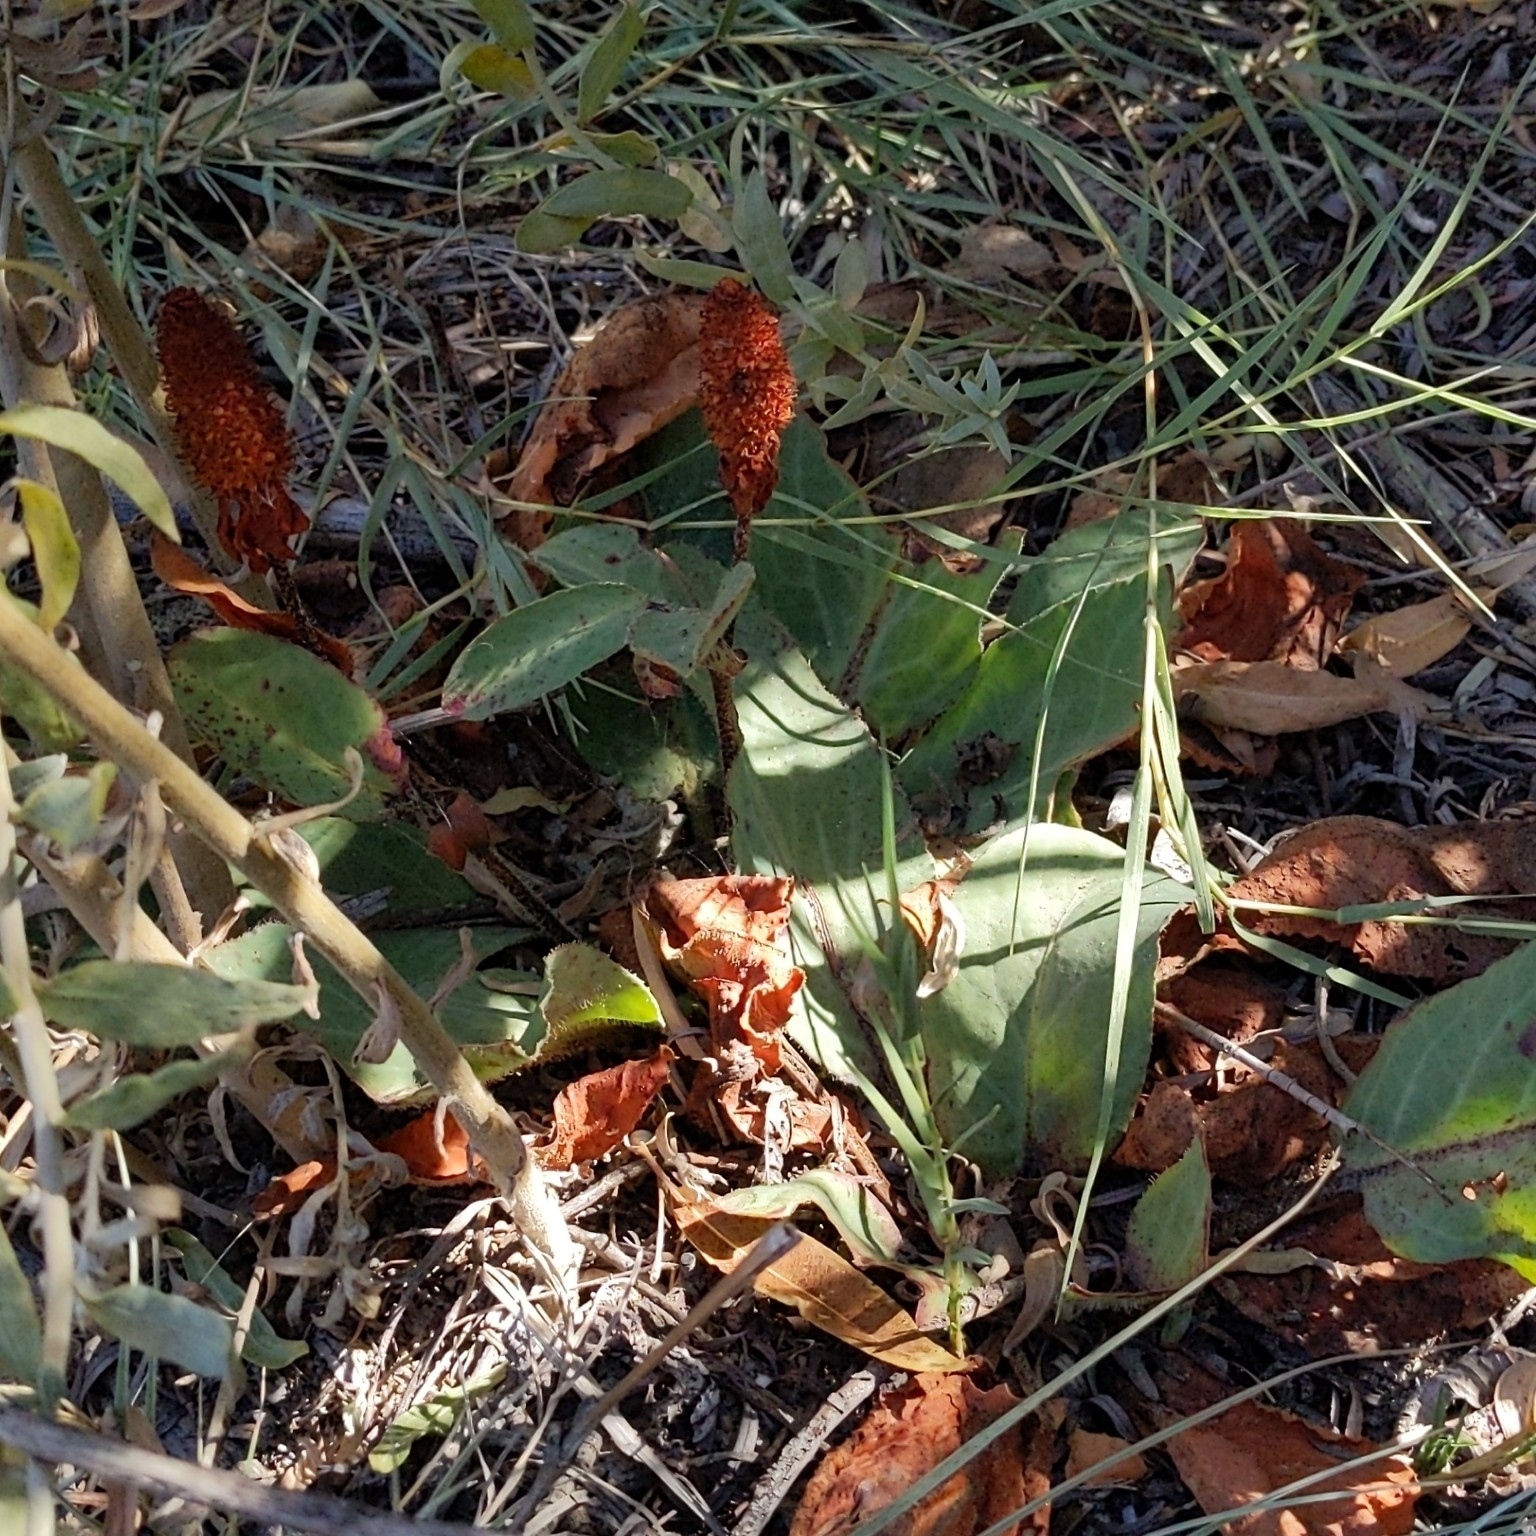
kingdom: Plantae
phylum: Tracheophyta
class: Magnoliopsida
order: Piperales
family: Saururaceae
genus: Anemopsis
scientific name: Anemopsis californica
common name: Apache-beads
